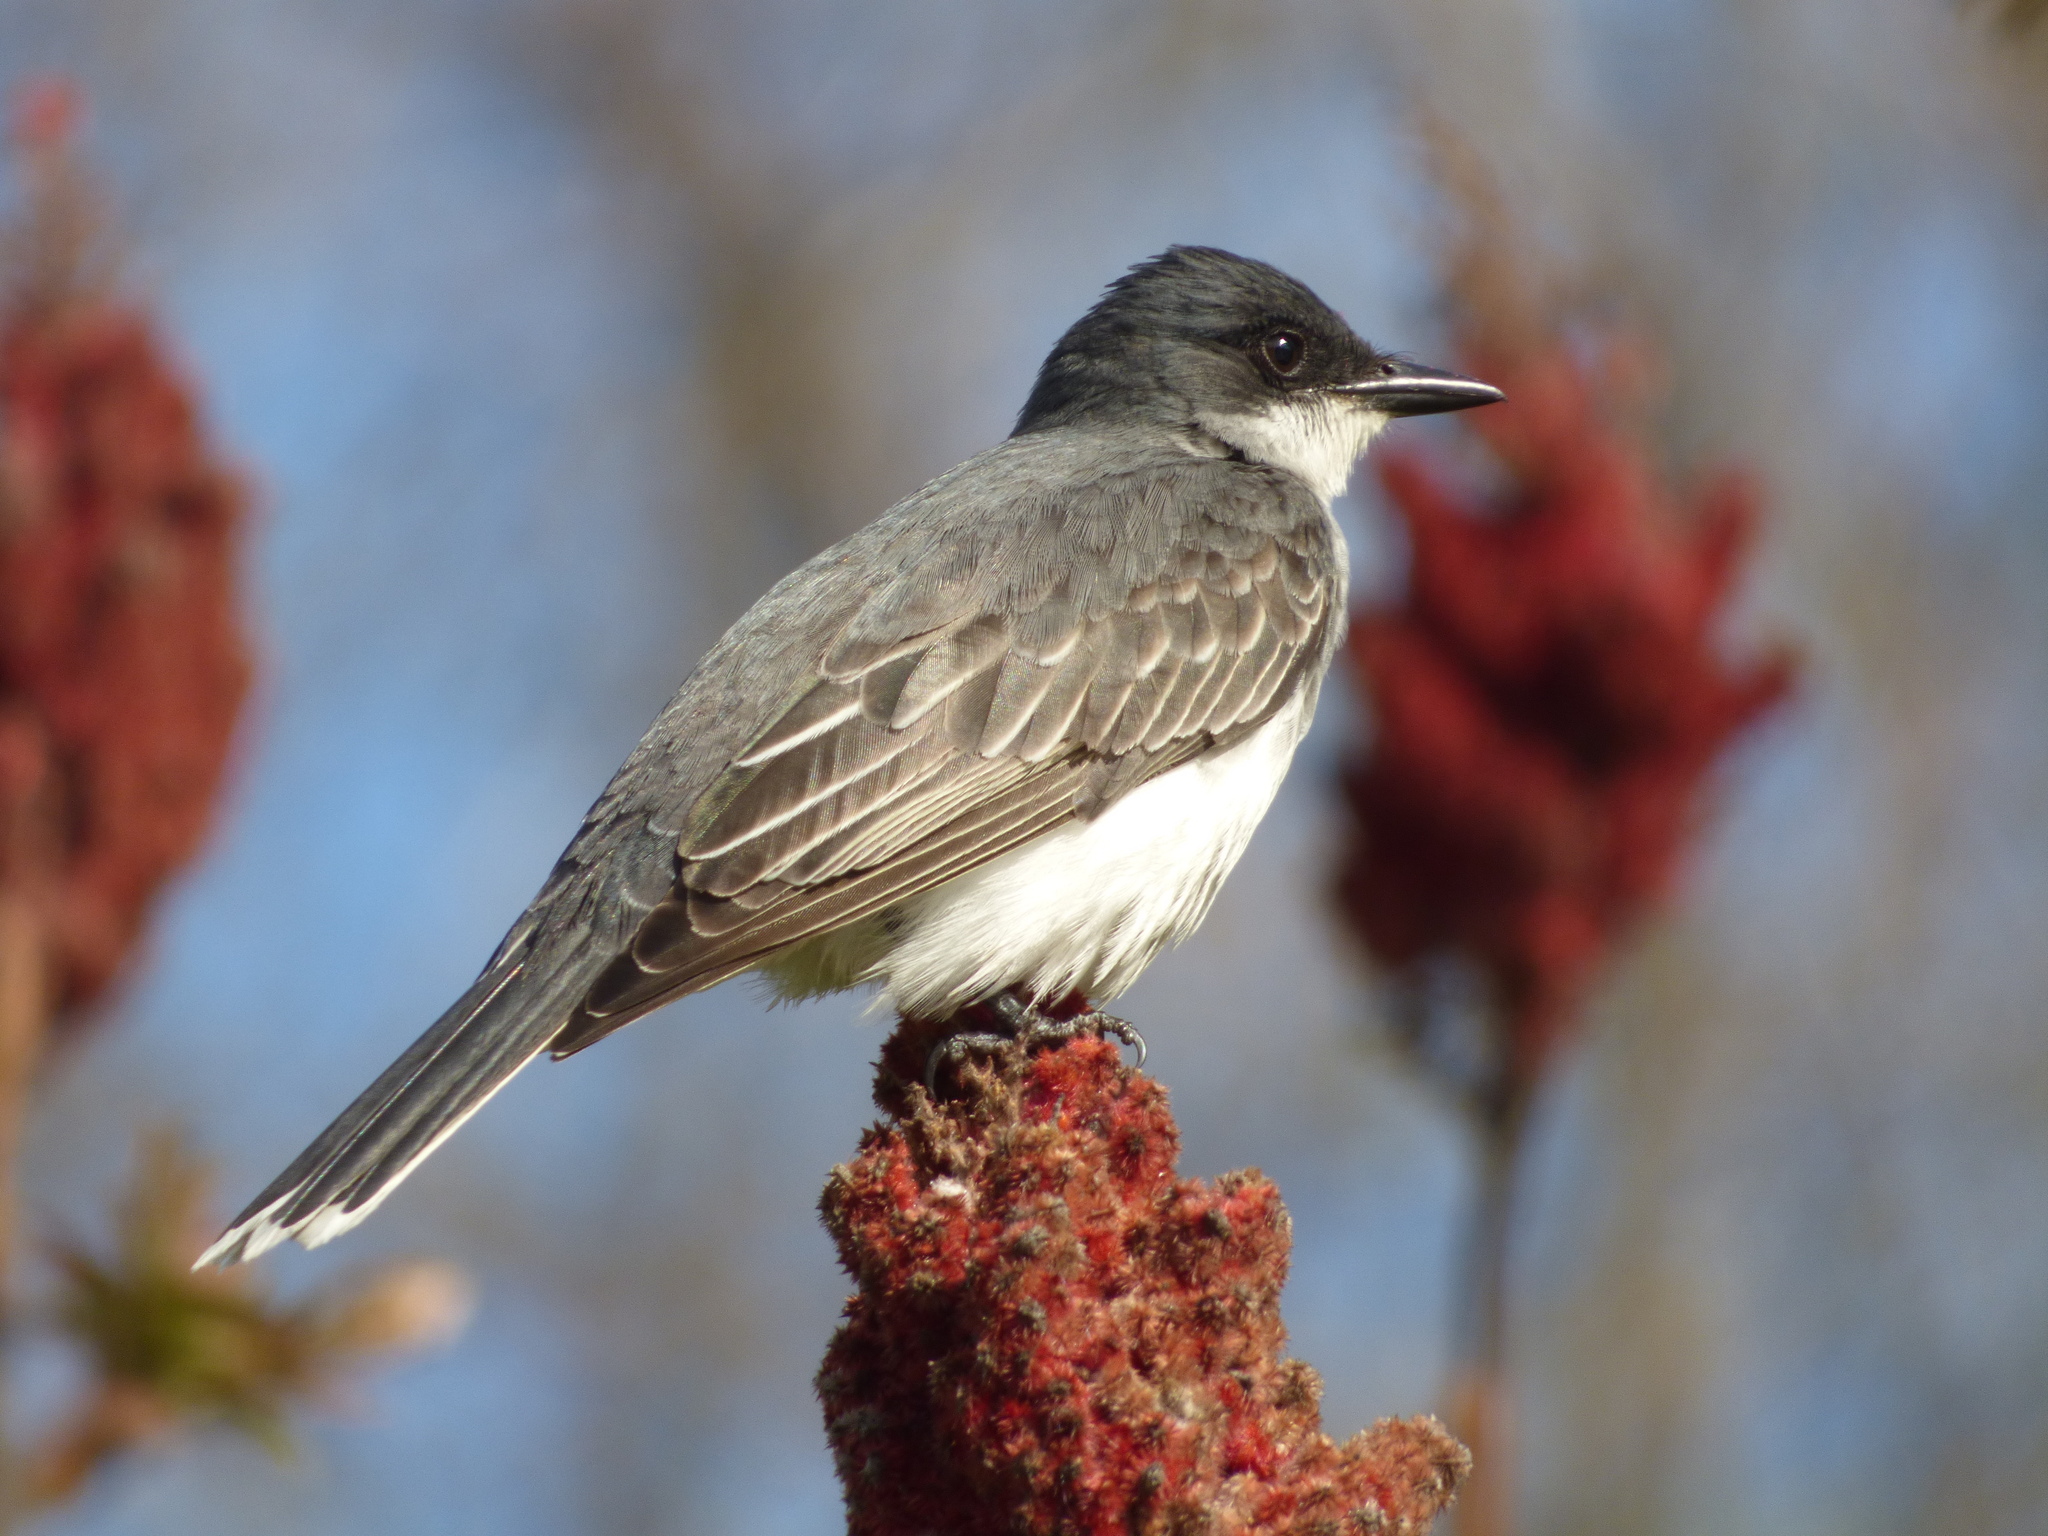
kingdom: Animalia
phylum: Chordata
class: Aves
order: Passeriformes
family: Tyrannidae
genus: Tyrannus
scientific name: Tyrannus tyrannus
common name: Eastern kingbird
